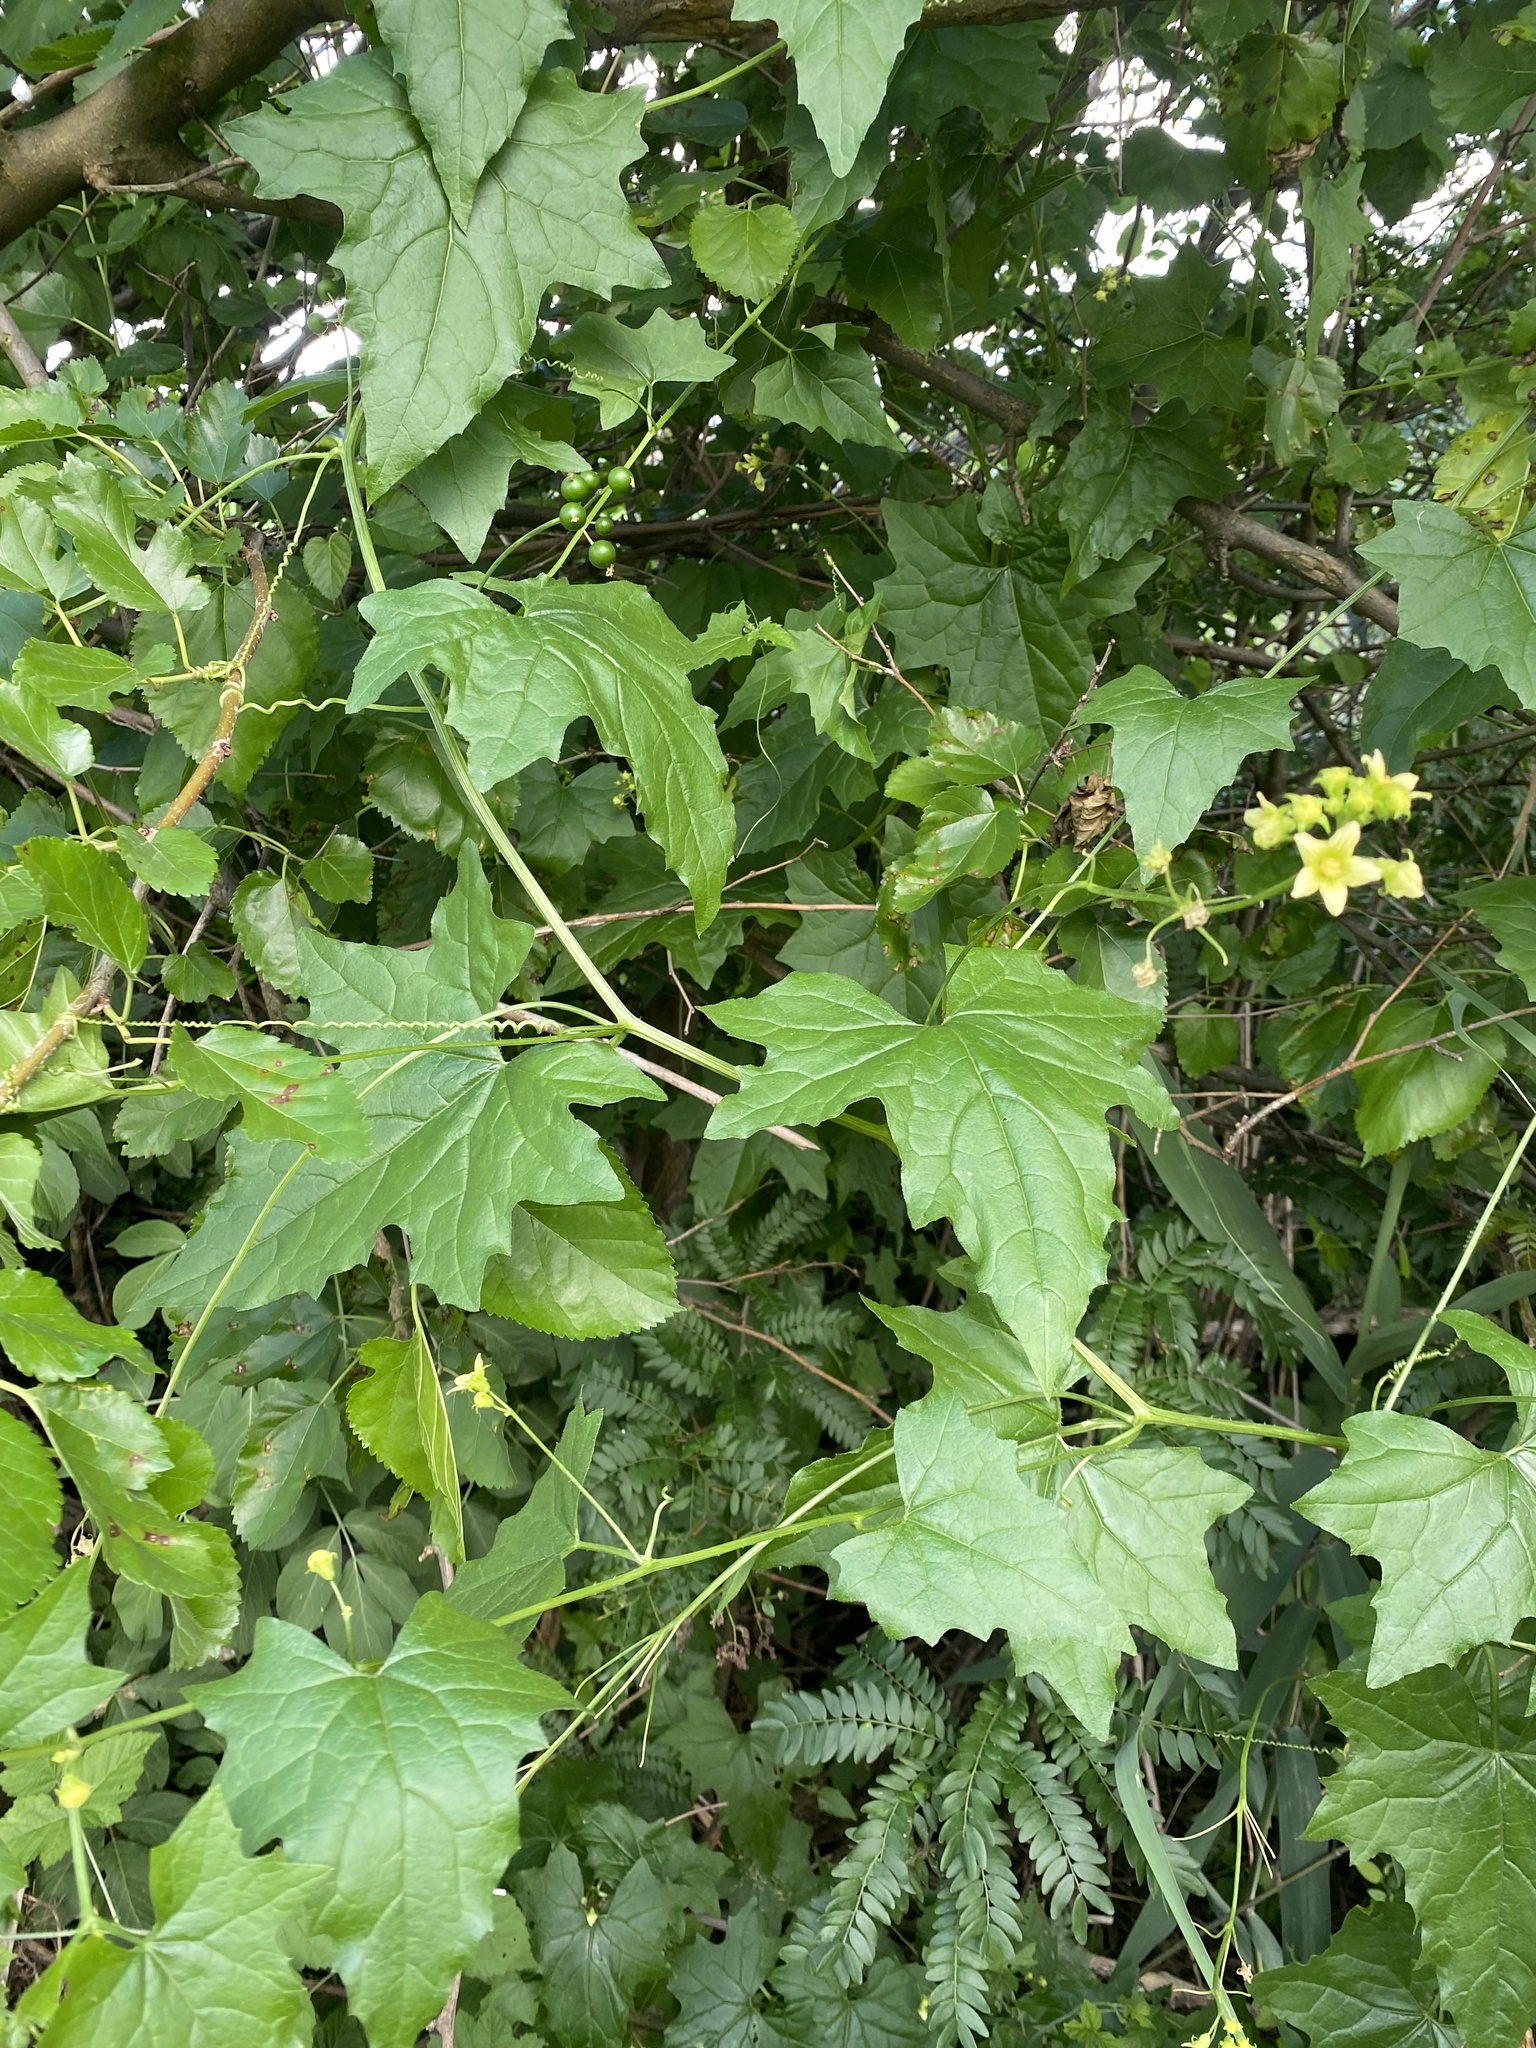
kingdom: Plantae
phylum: Tracheophyta
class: Magnoliopsida
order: Cucurbitales
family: Cucurbitaceae
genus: Bryonia
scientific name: Bryonia alba
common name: White bryony
